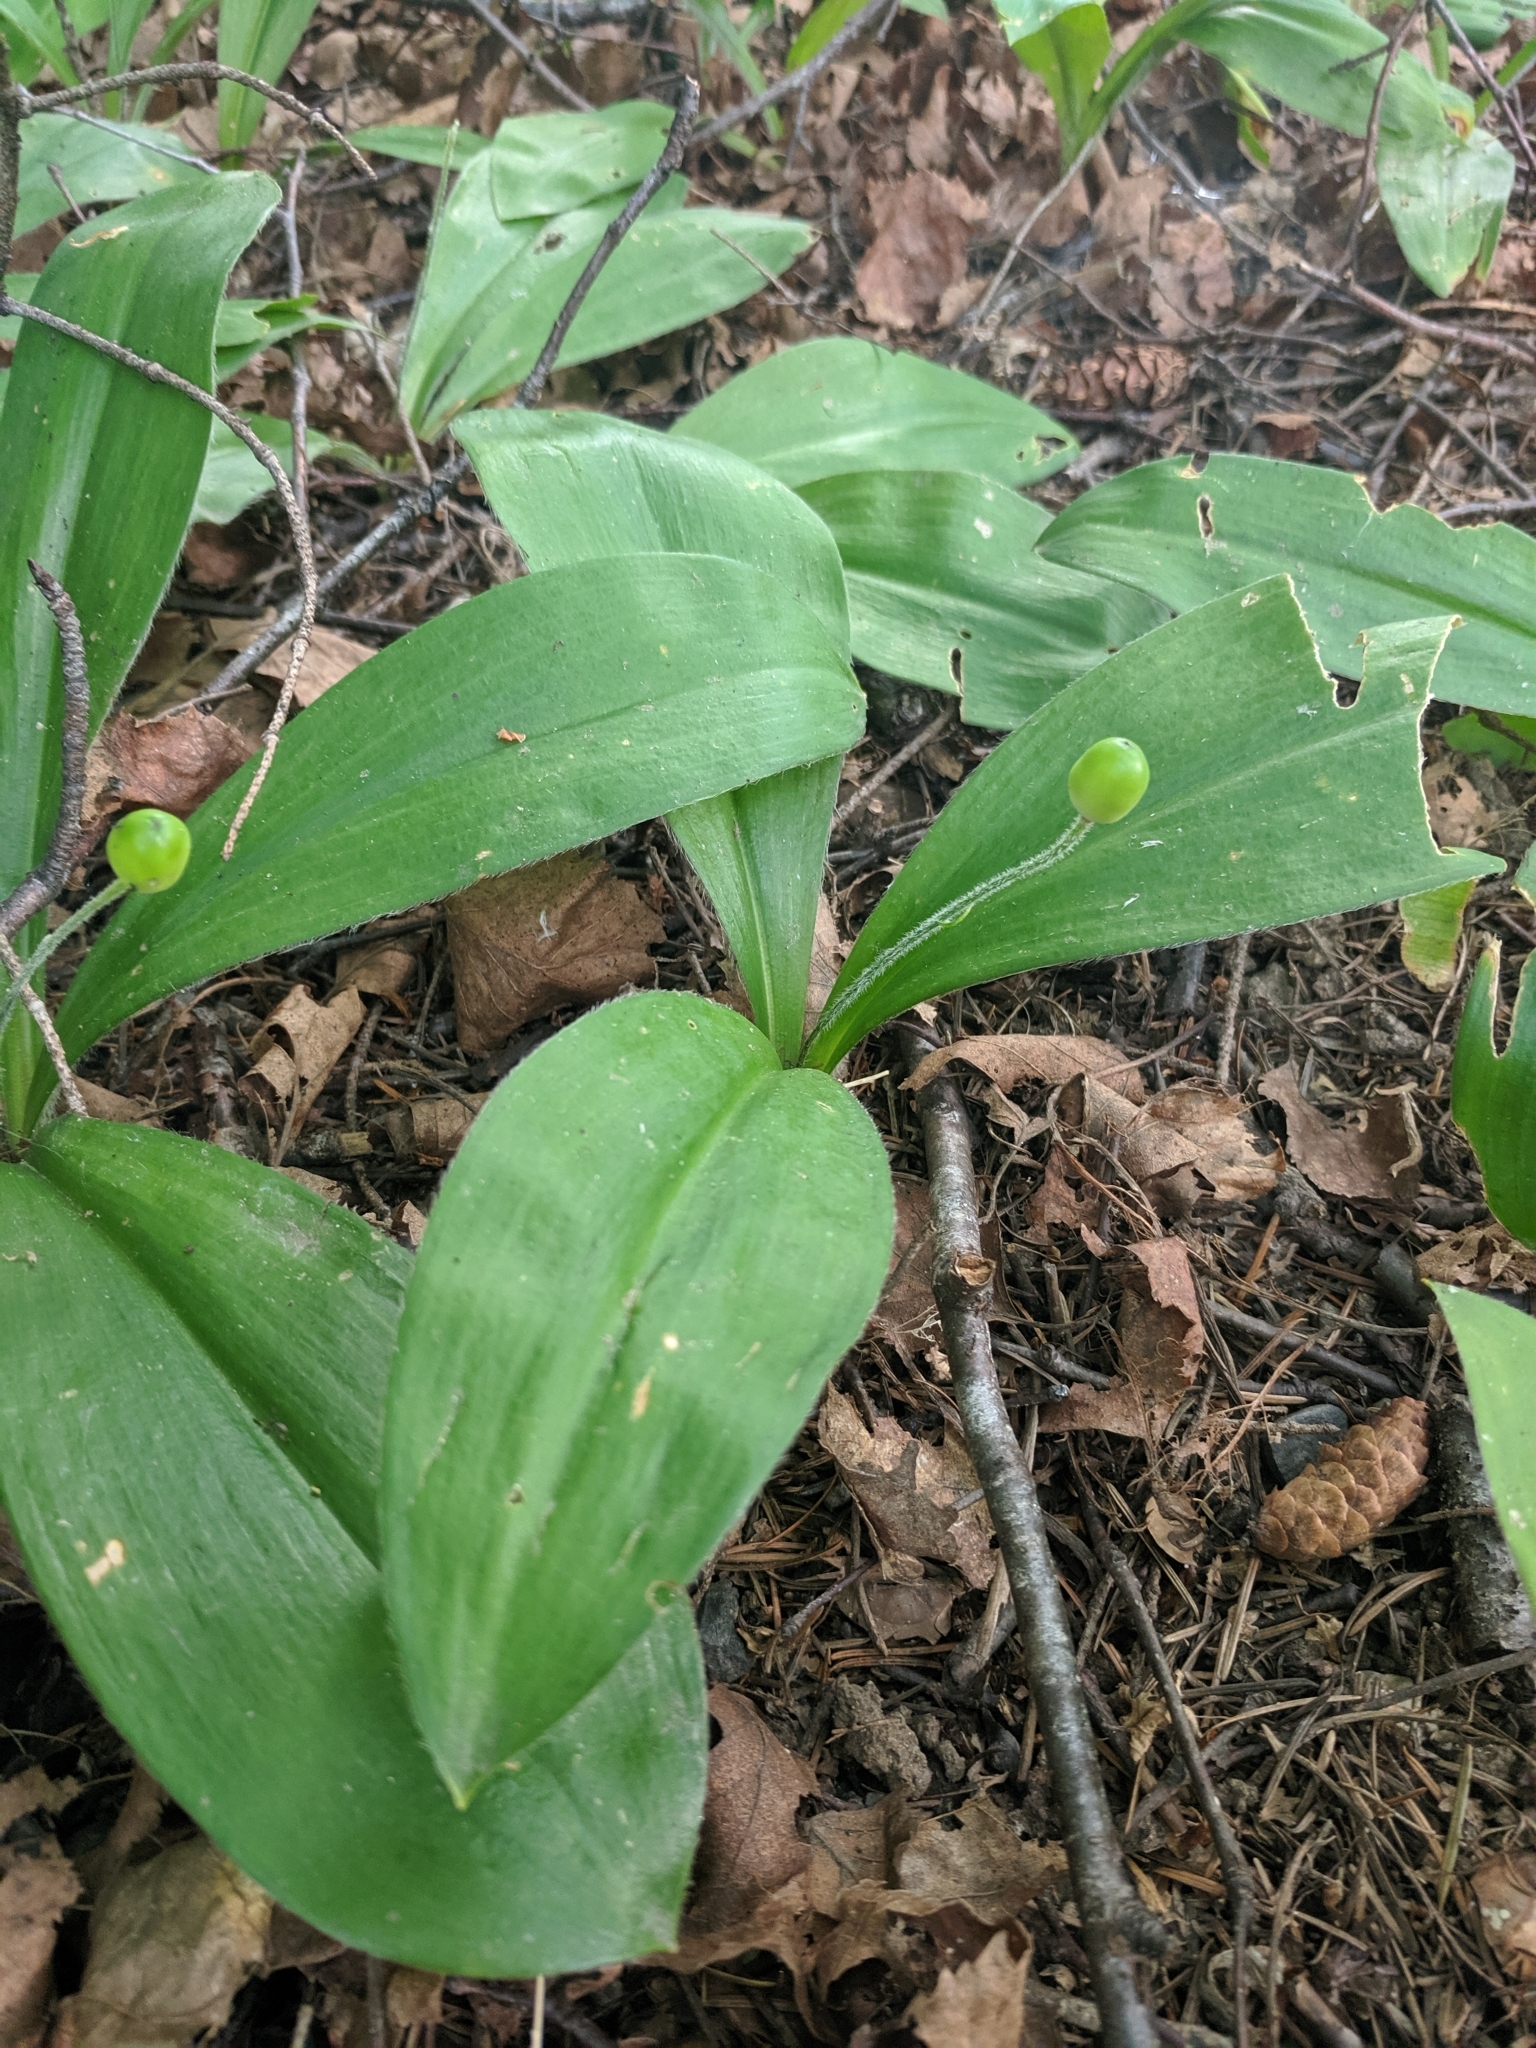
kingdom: Plantae
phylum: Tracheophyta
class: Liliopsida
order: Liliales
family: Liliaceae
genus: Clintonia
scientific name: Clintonia uniflora
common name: Queen's cup
